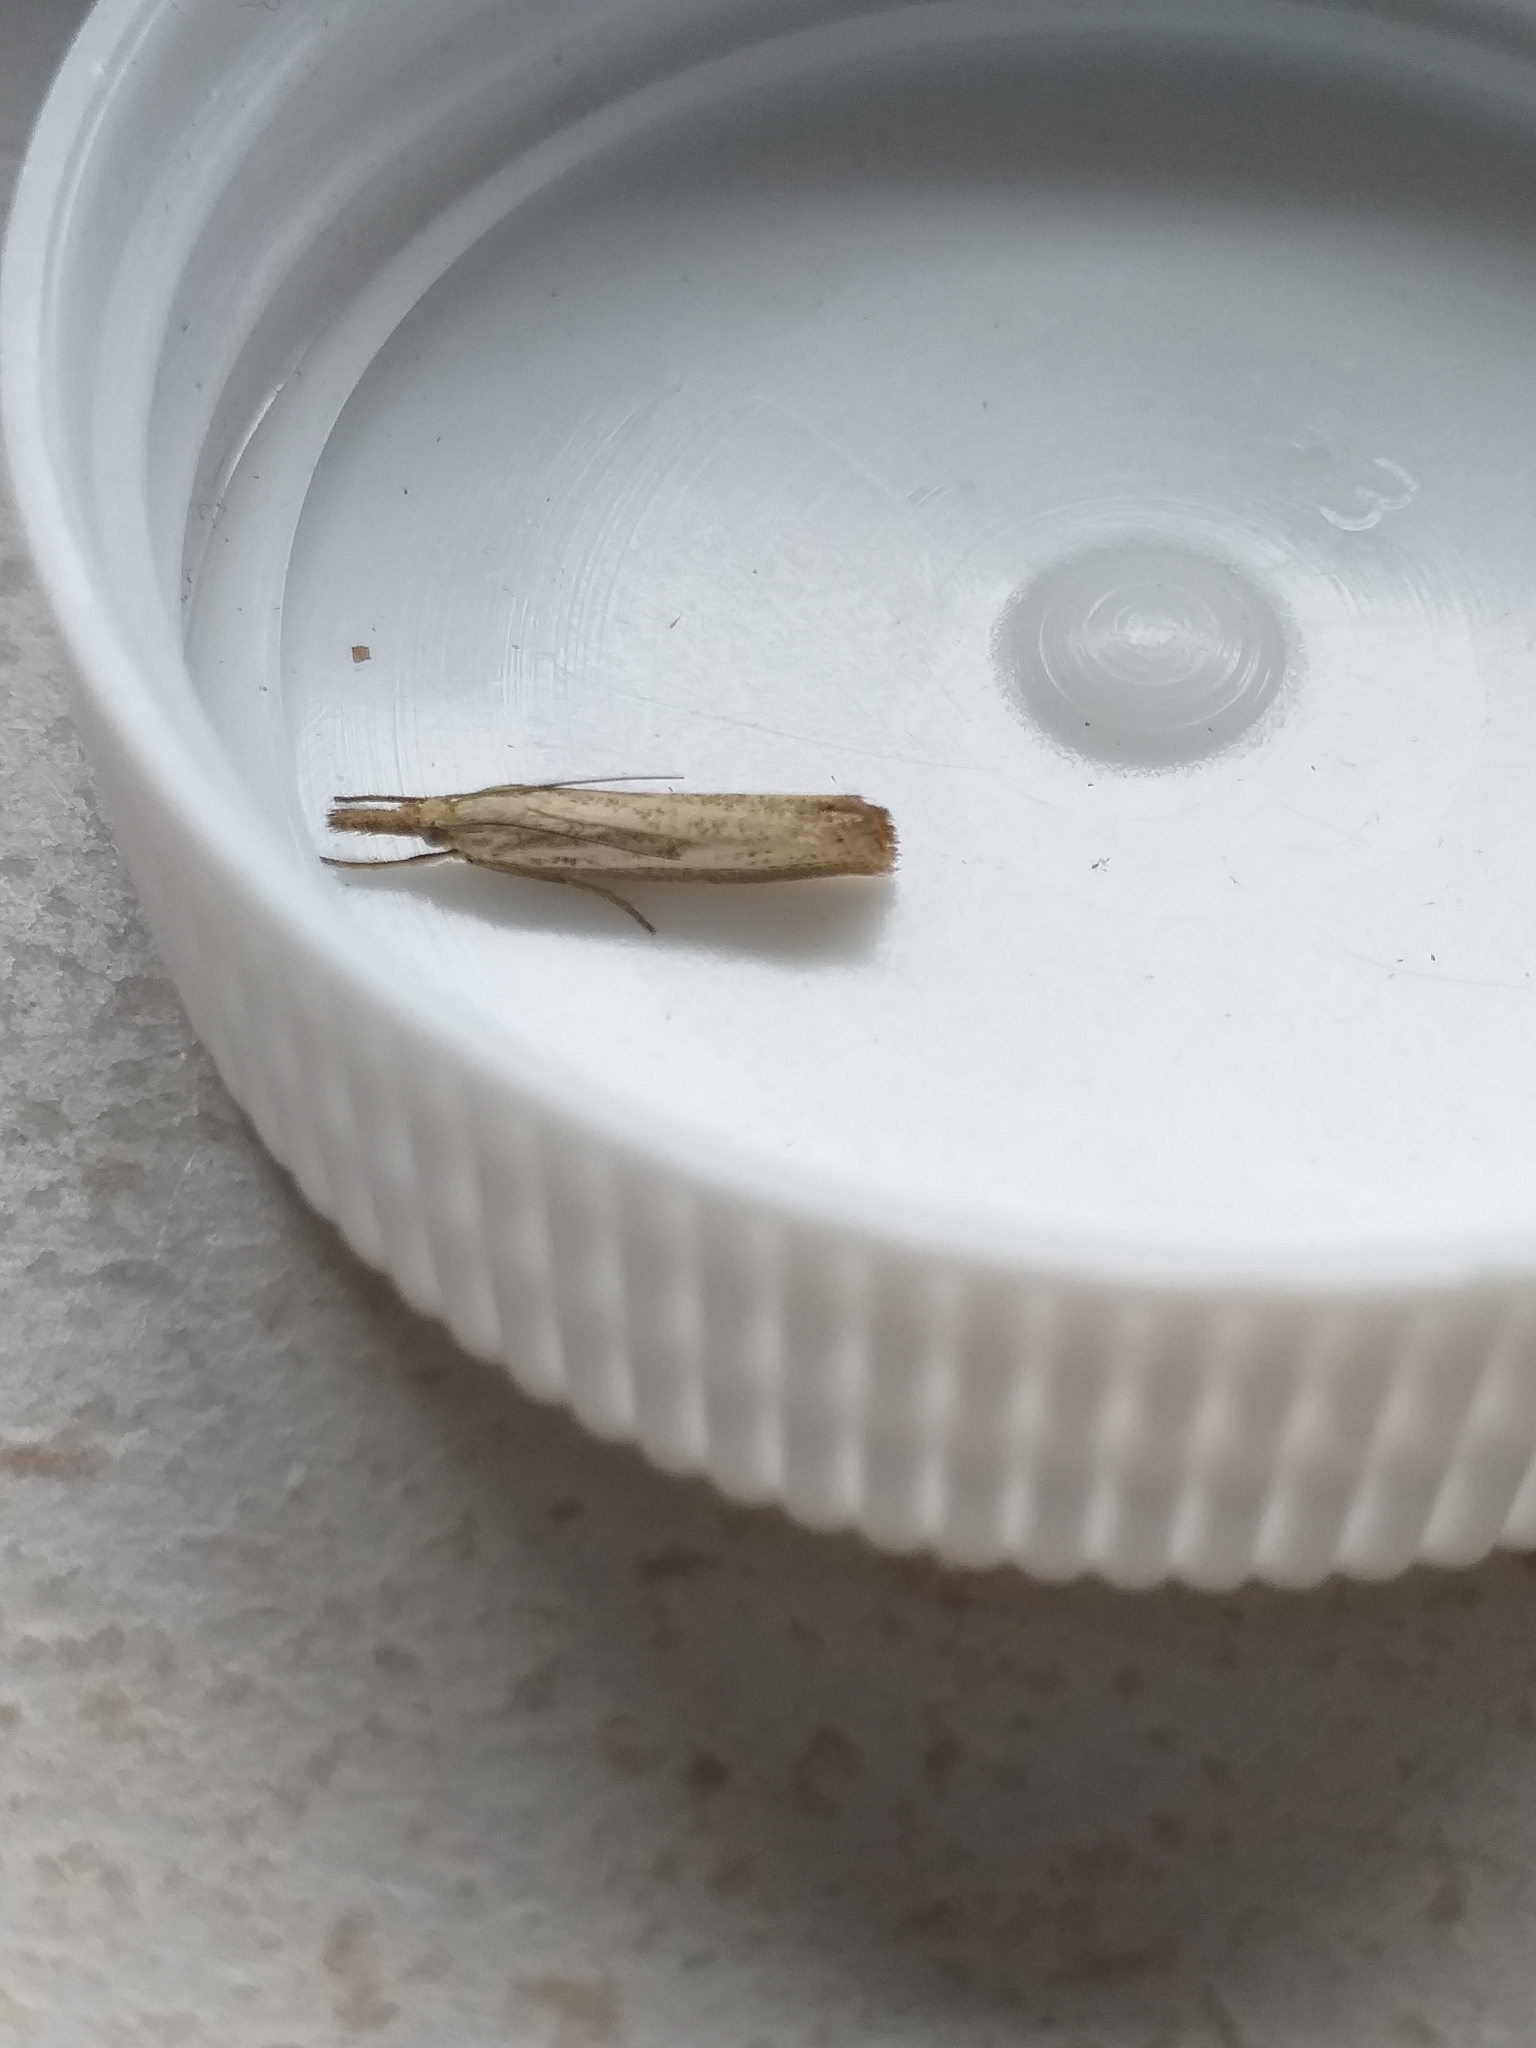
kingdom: Animalia
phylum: Arthropoda
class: Insecta
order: Lepidoptera
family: Crambidae
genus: Agriphila
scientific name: Agriphila straminella
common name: Straw grass-veneer
